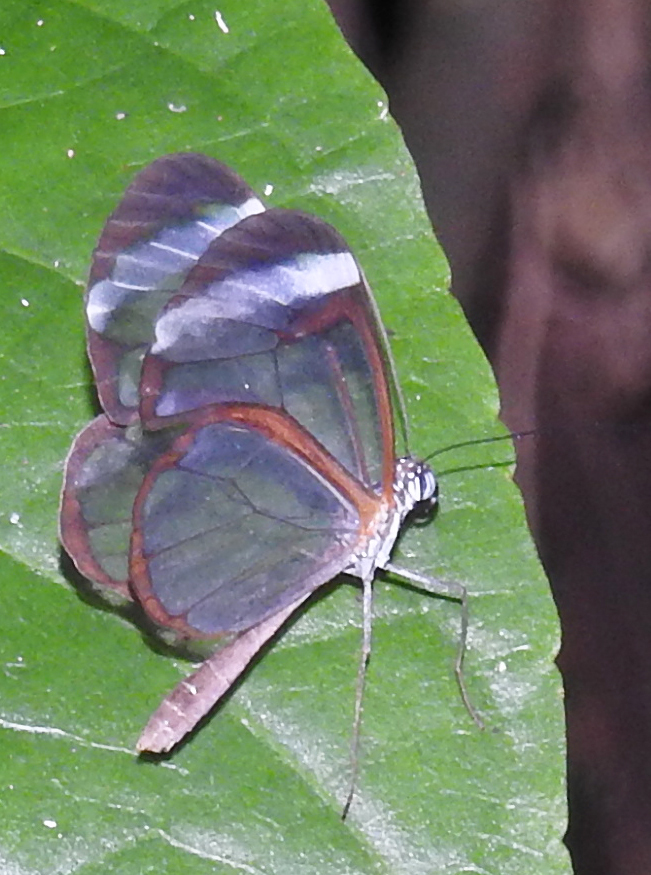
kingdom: Animalia
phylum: Arthropoda
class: Insecta
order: Lepidoptera
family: Nymphalidae
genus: Greta
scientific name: Greta morgane
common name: Thick-tipped greta
